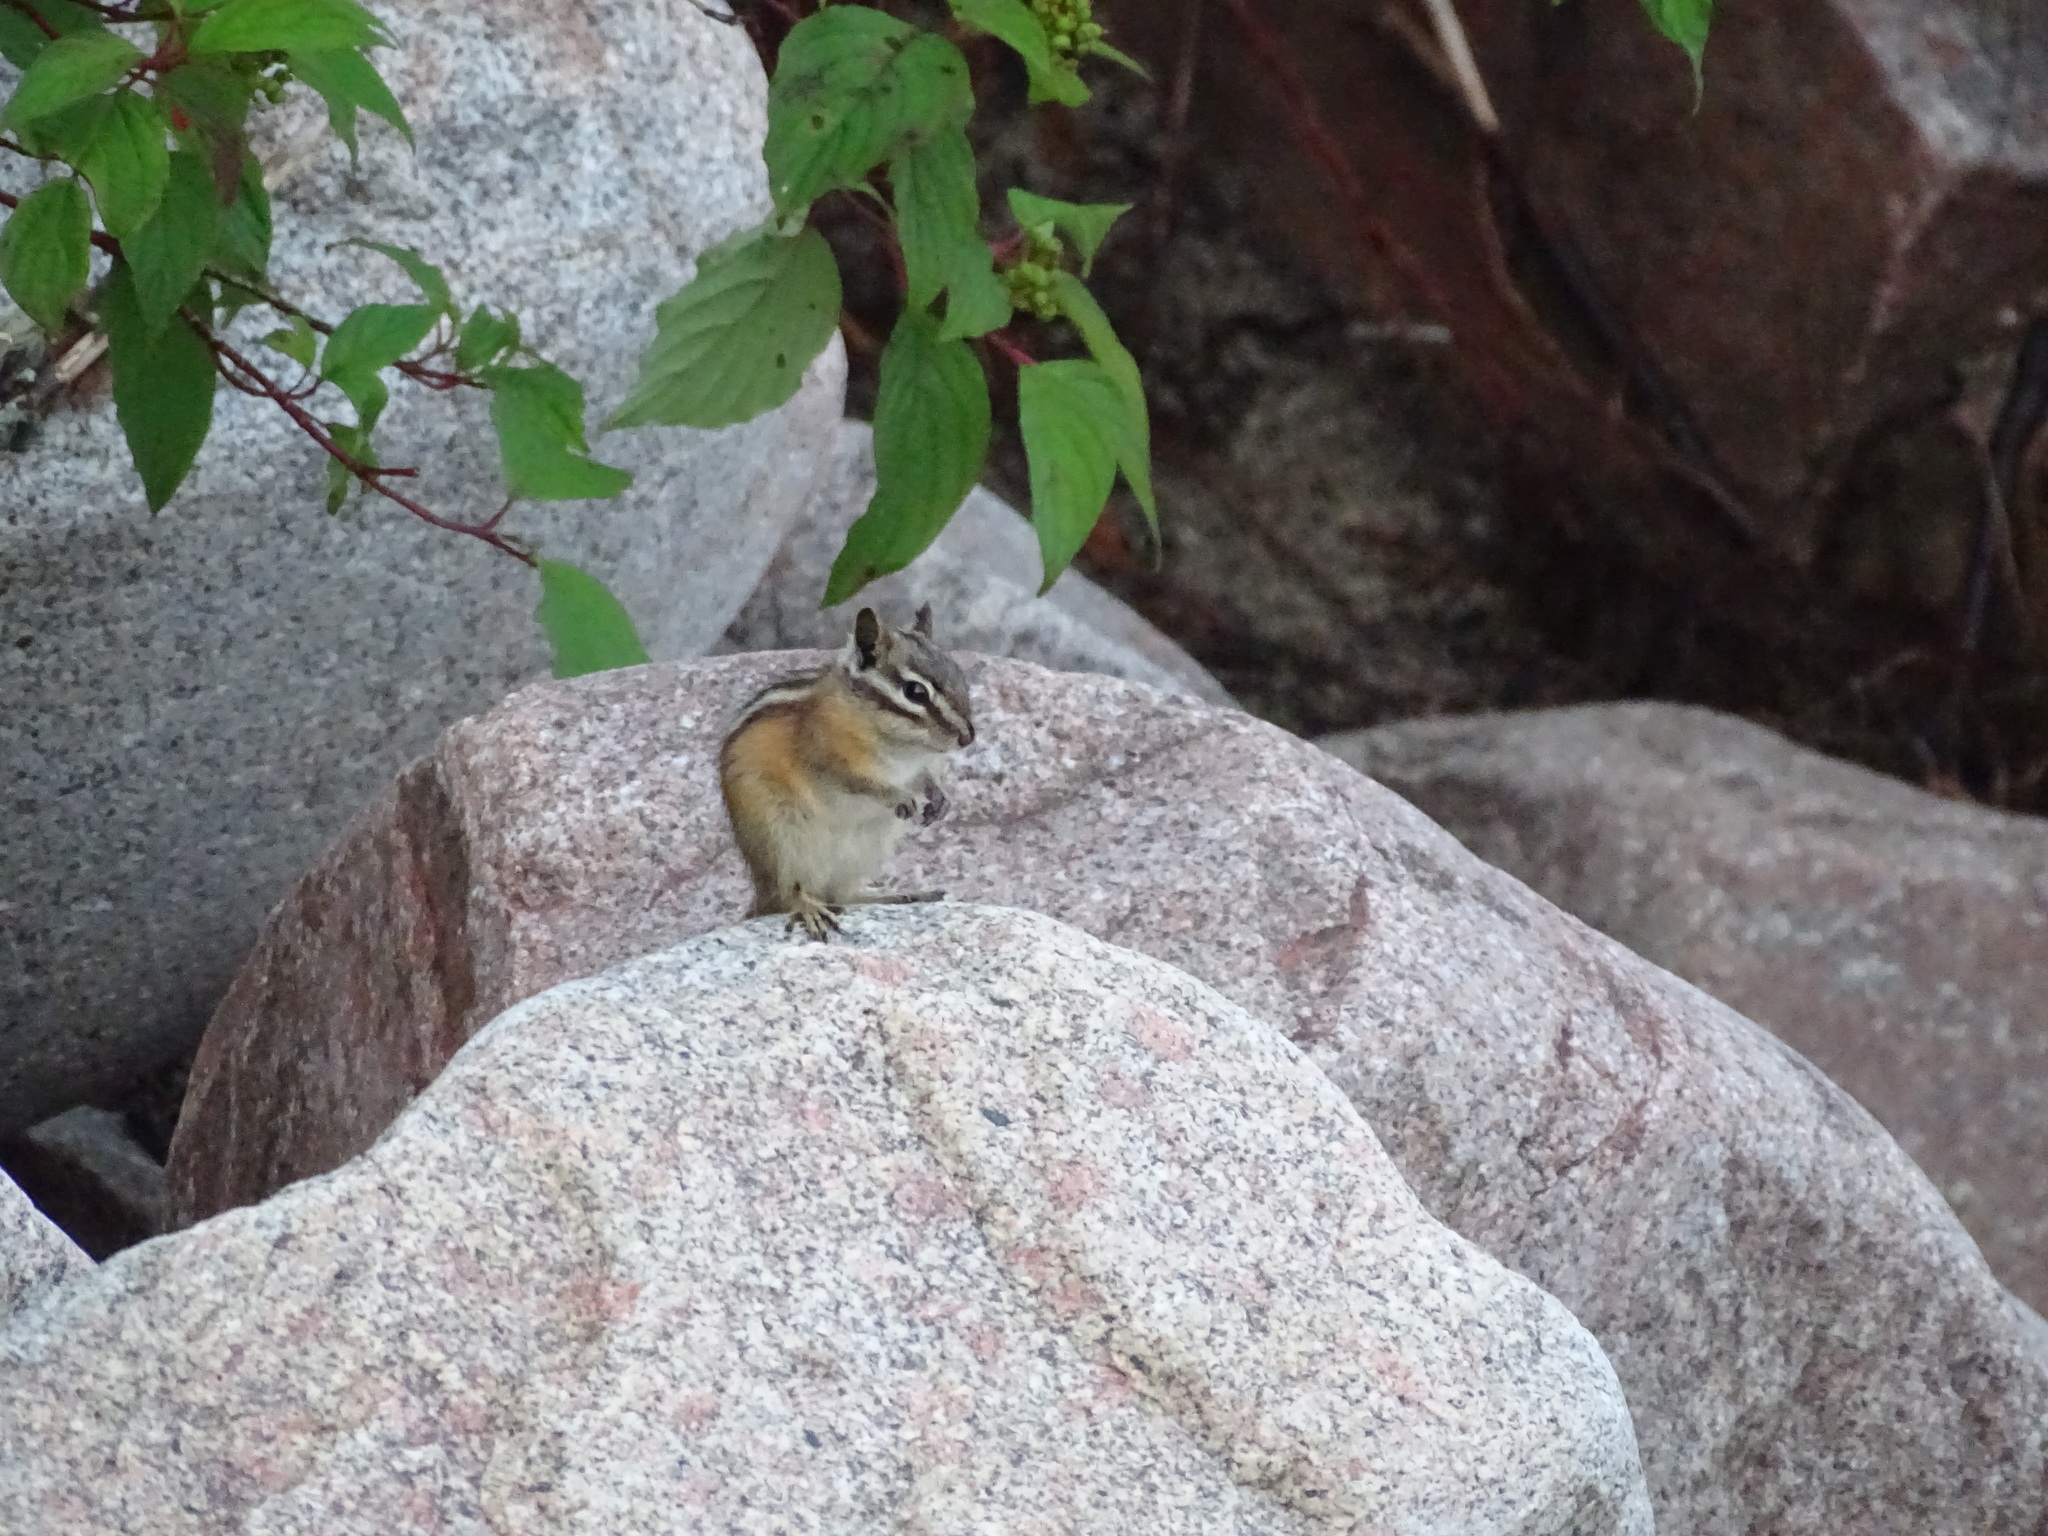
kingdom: Animalia
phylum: Chordata
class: Mammalia
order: Rodentia
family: Sciuridae
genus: Tamias
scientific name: Tamias minimus
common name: Least chipmunk
